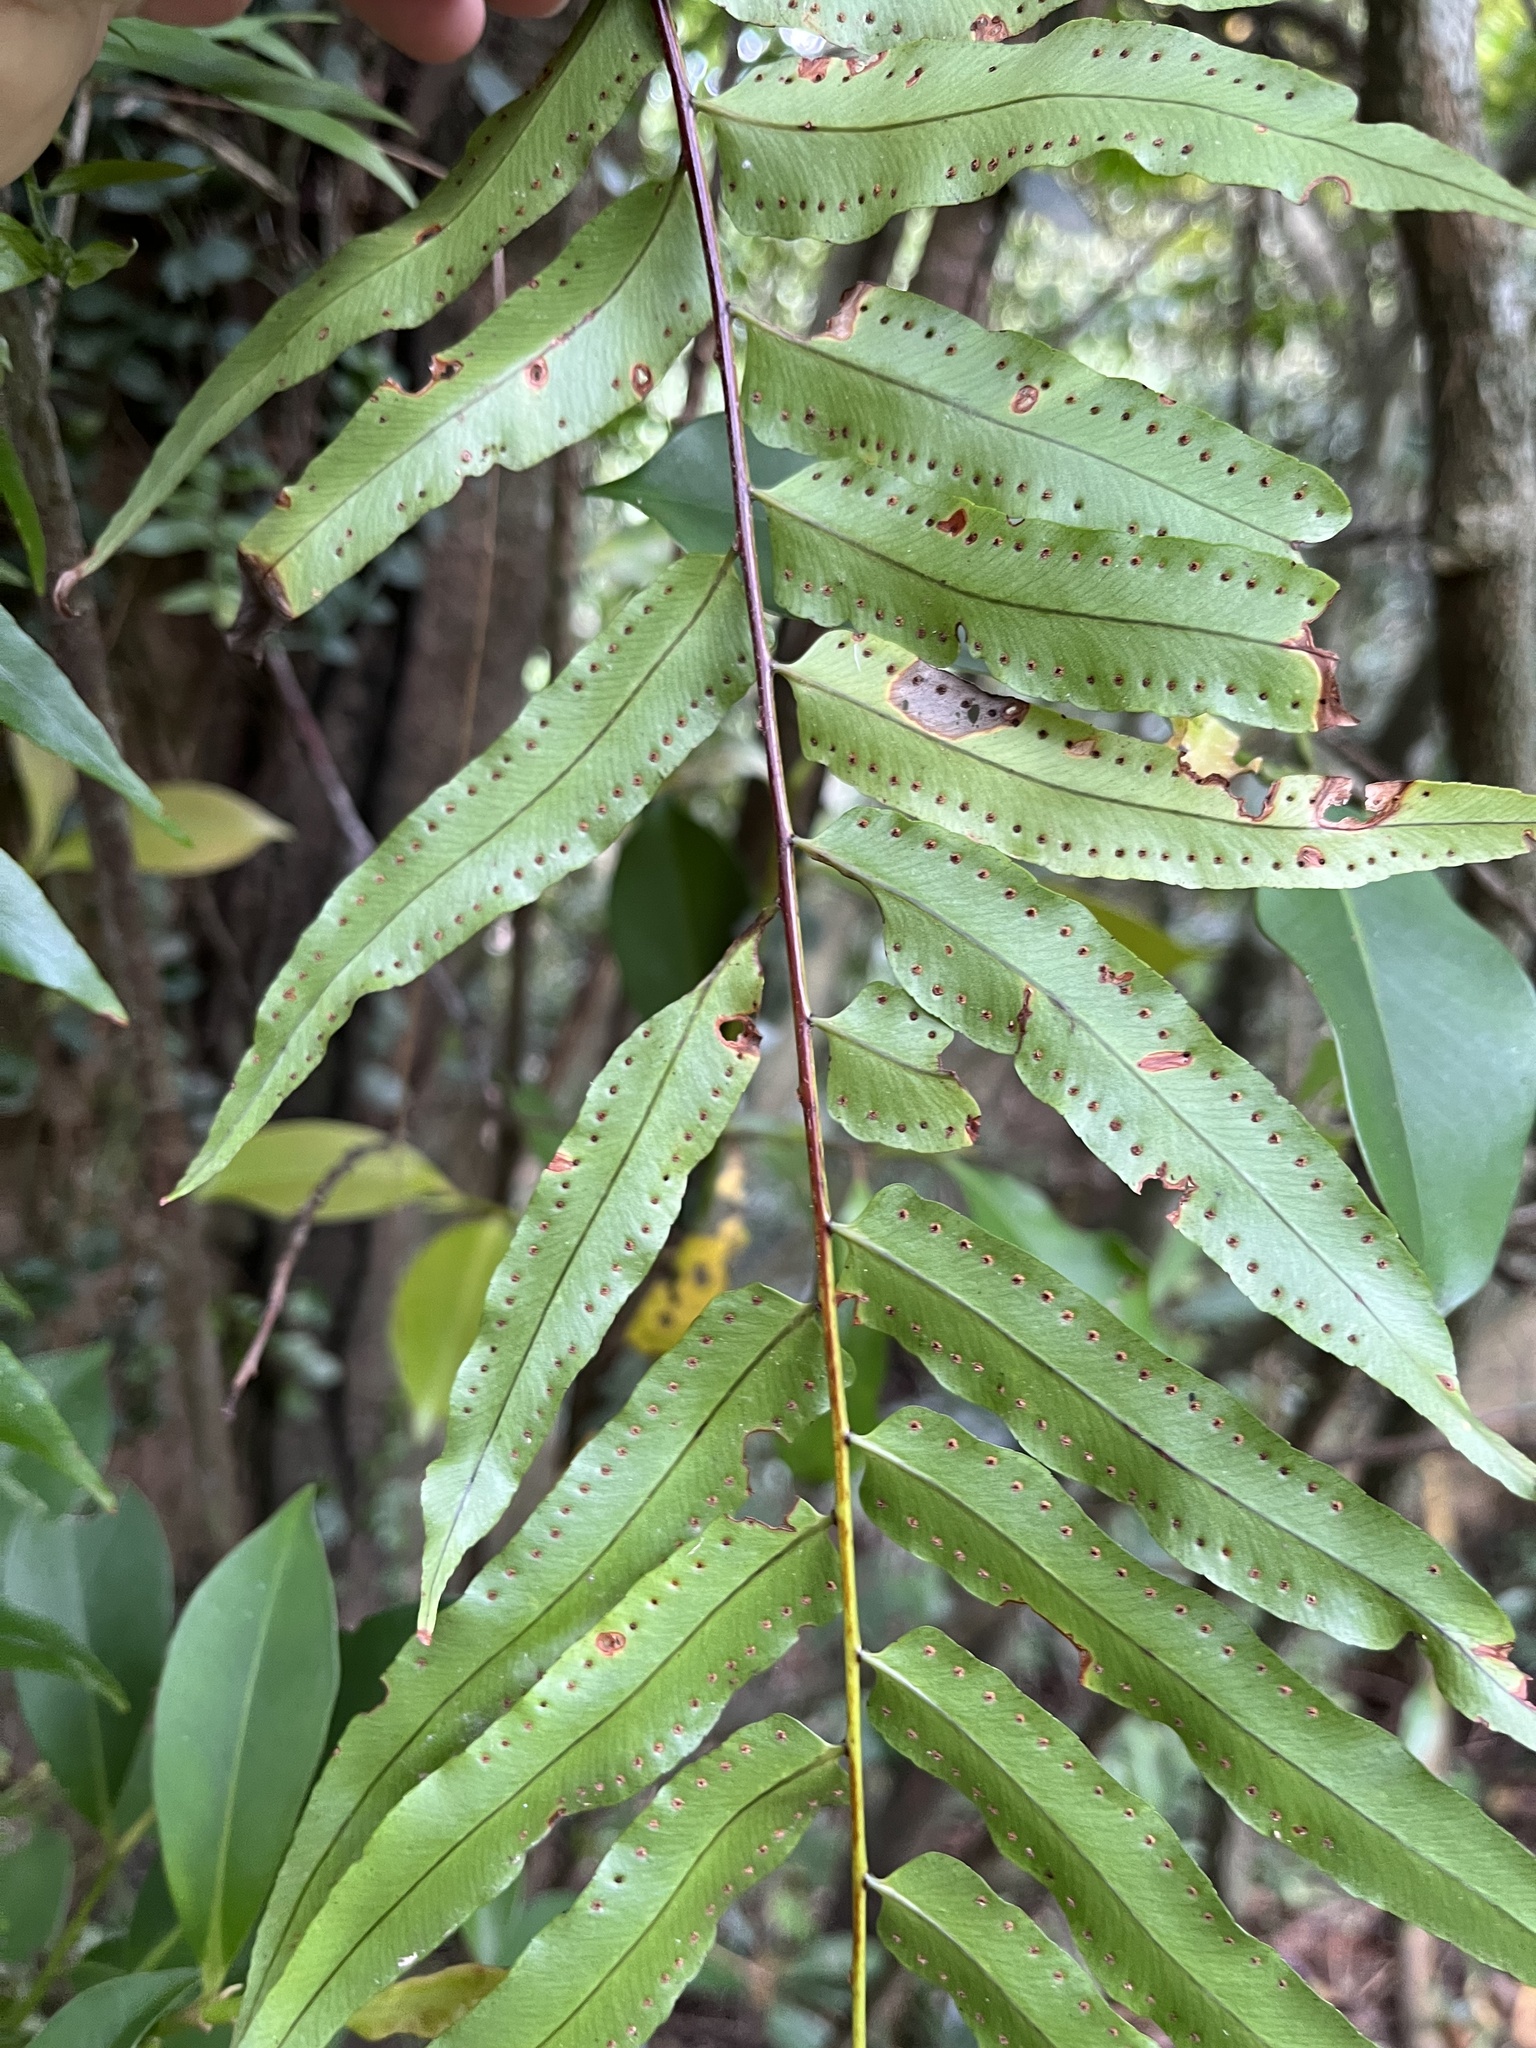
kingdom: Plantae
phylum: Tracheophyta
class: Polypodiopsida
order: Polypodiales
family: Nephrolepidaceae
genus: Nephrolepis
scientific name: Nephrolepis biserrata
